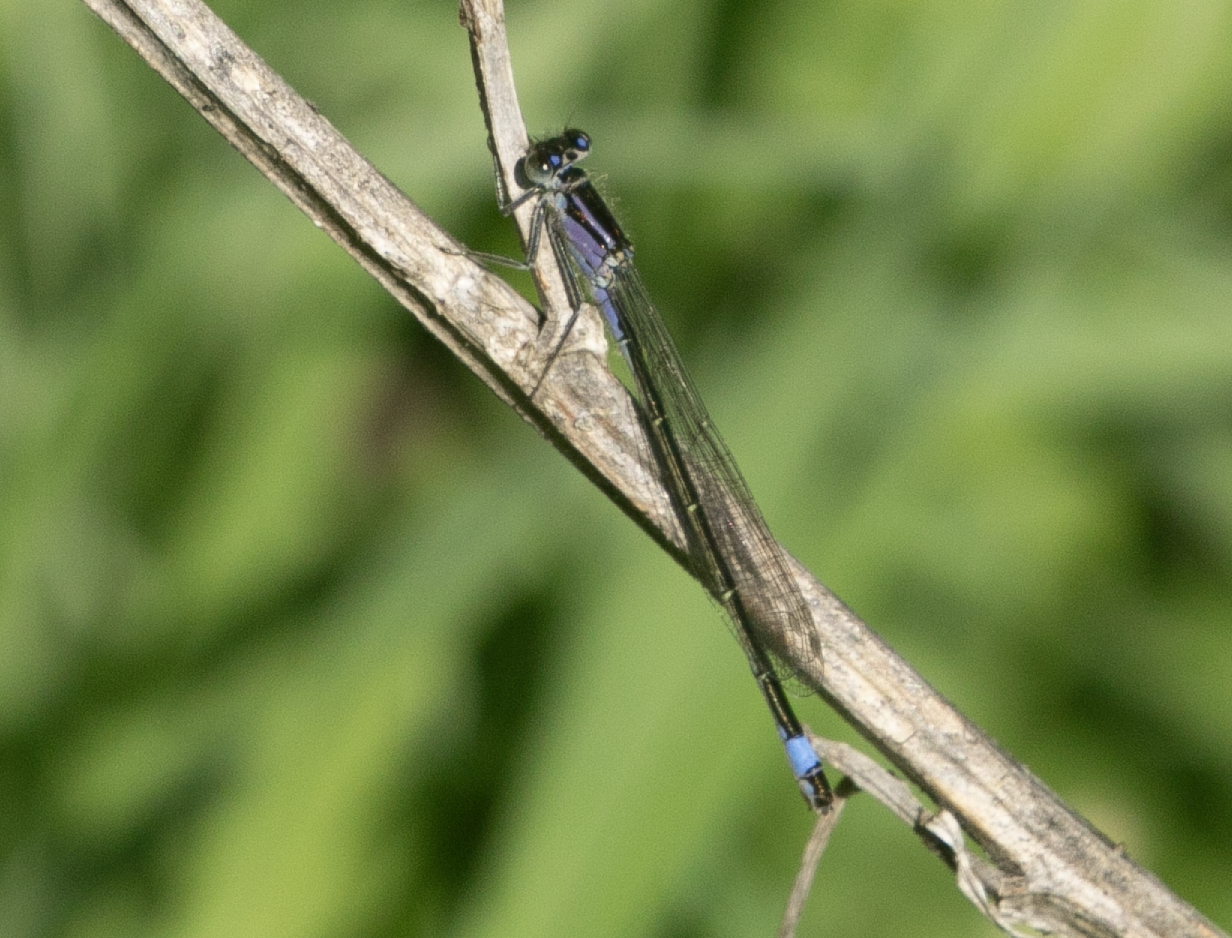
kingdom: Animalia
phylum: Arthropoda
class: Insecta
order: Odonata
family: Coenagrionidae
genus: Ischnura
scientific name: Ischnura elegans
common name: Blue-tailed damselfly
